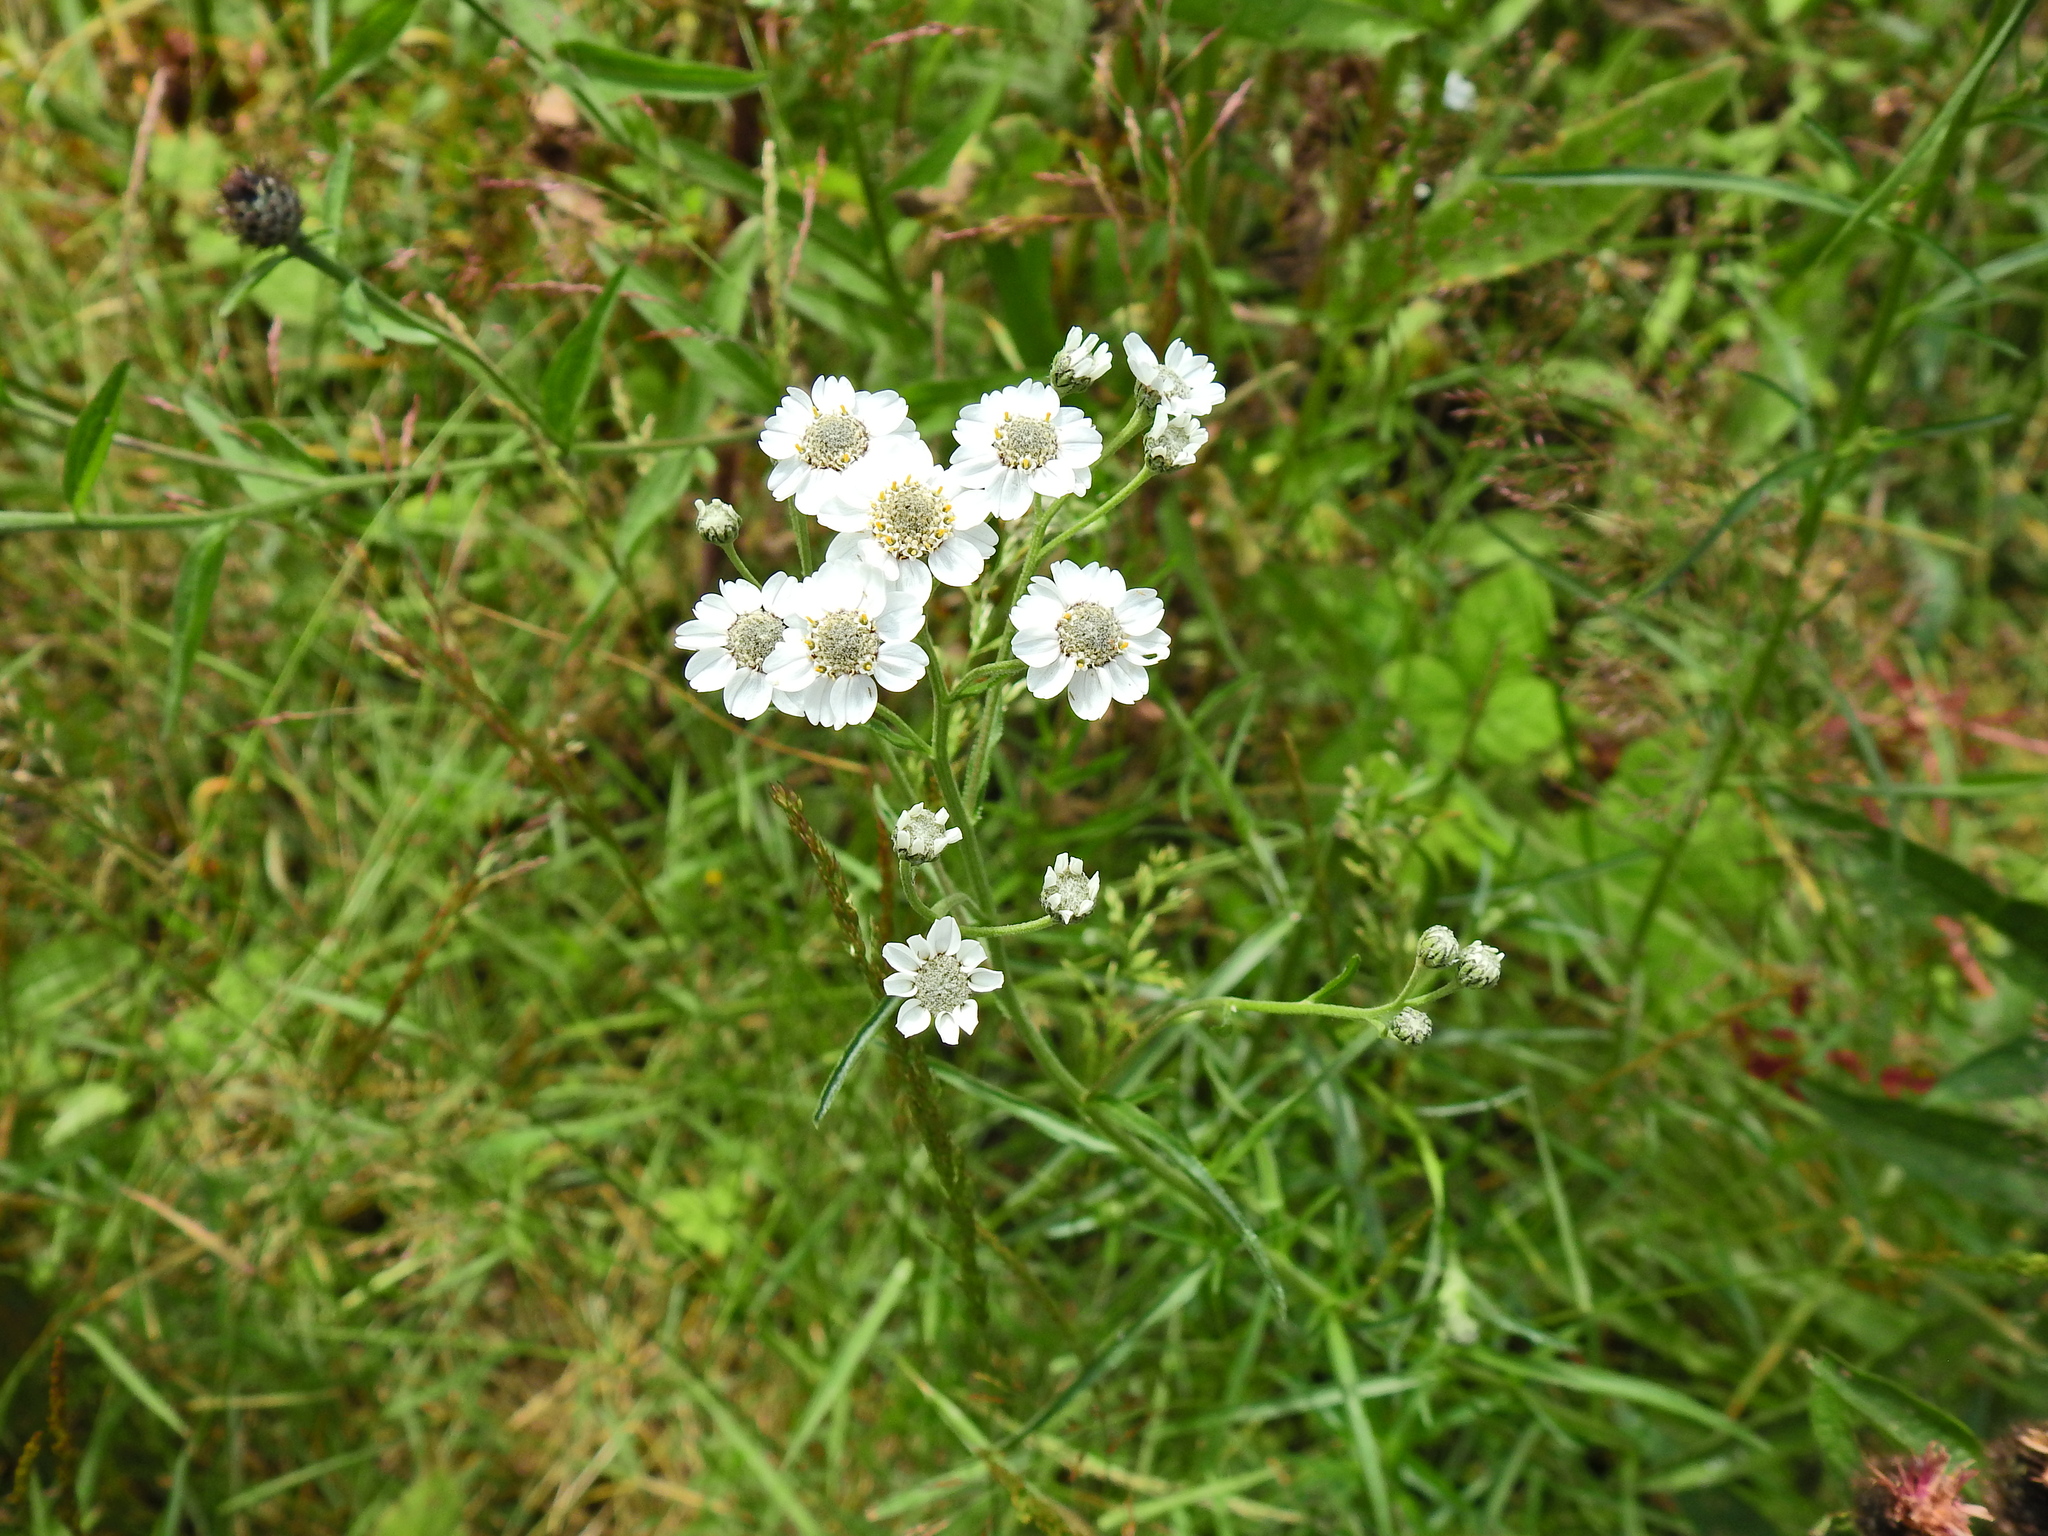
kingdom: Plantae
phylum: Tracheophyta
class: Magnoliopsida
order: Asterales
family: Asteraceae
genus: Achillea
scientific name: Achillea ptarmica
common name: Sneezeweed
